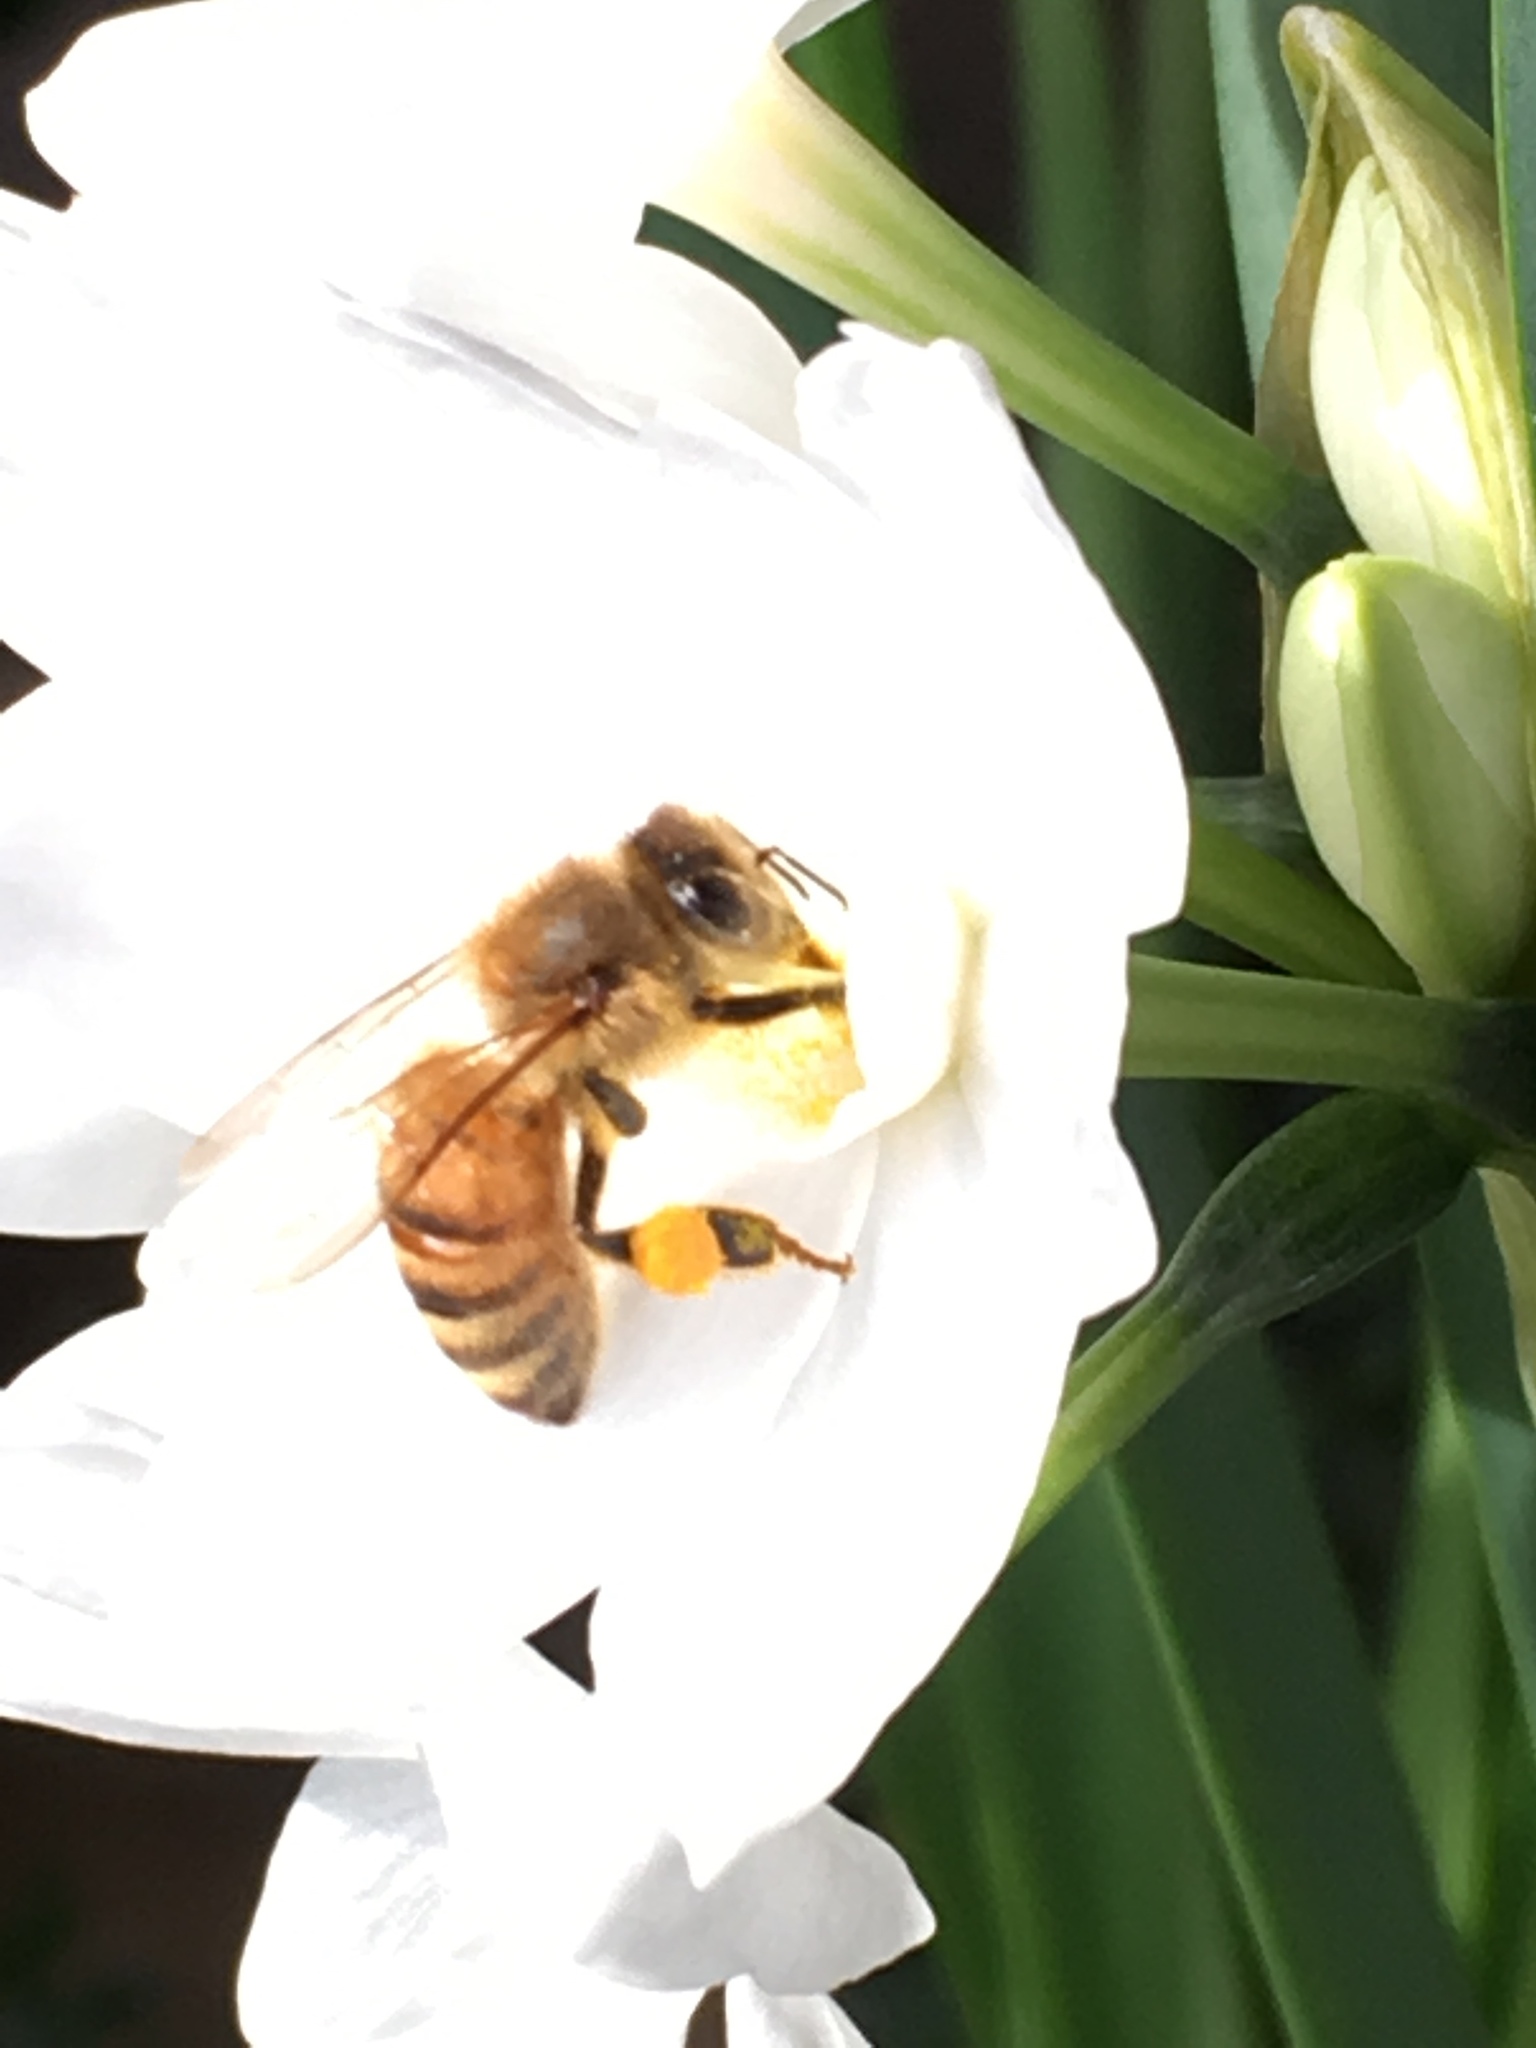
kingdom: Animalia
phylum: Arthropoda
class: Insecta
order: Hymenoptera
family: Apidae
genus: Apis
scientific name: Apis mellifera
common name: Honey bee
